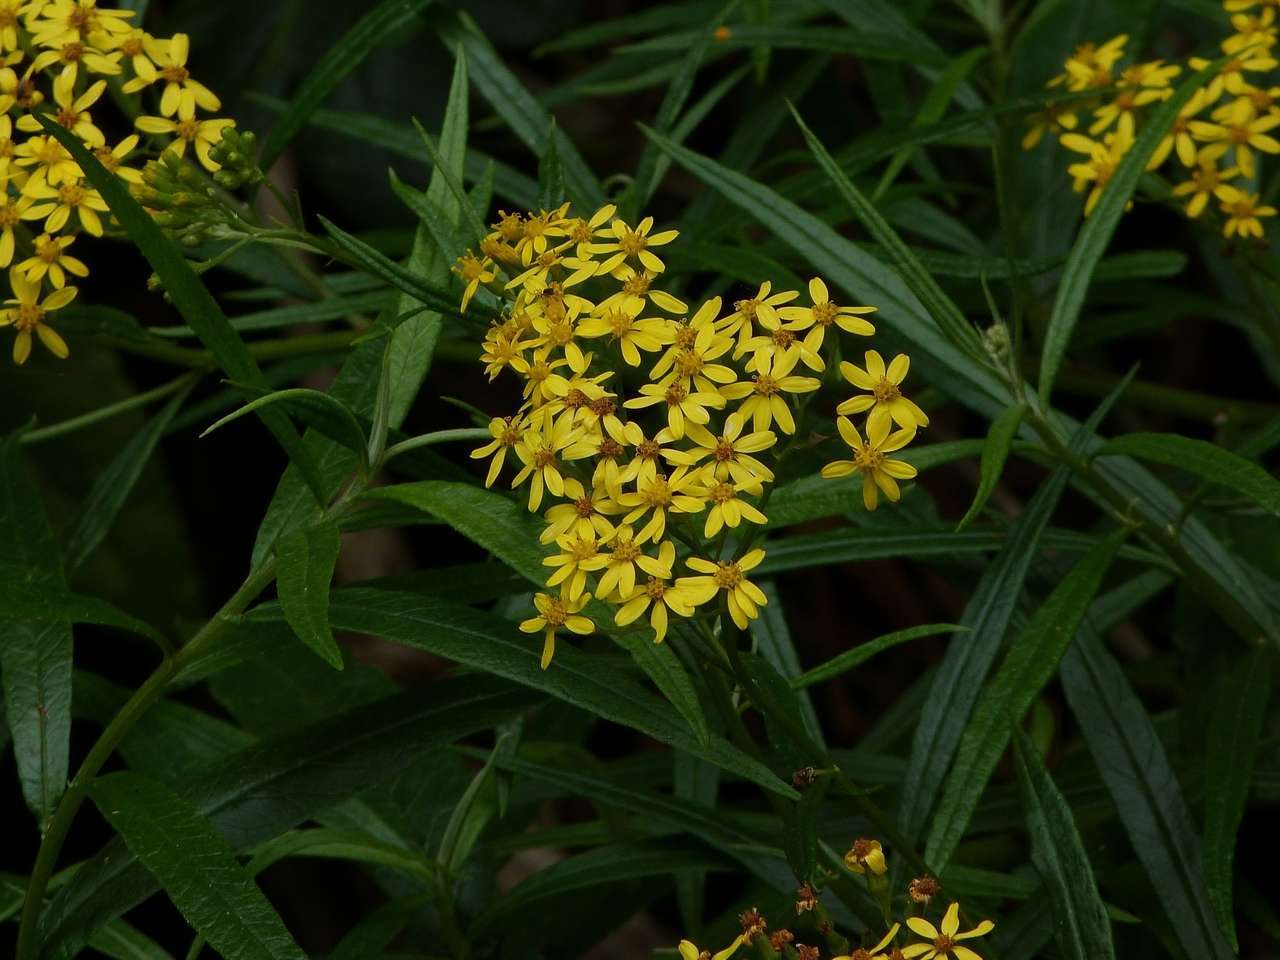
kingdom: Plantae
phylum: Tracheophyta
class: Magnoliopsida
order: Asterales
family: Asteraceae
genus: Senecio
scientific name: Senecio linearifolius
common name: Fireweed groundsel
